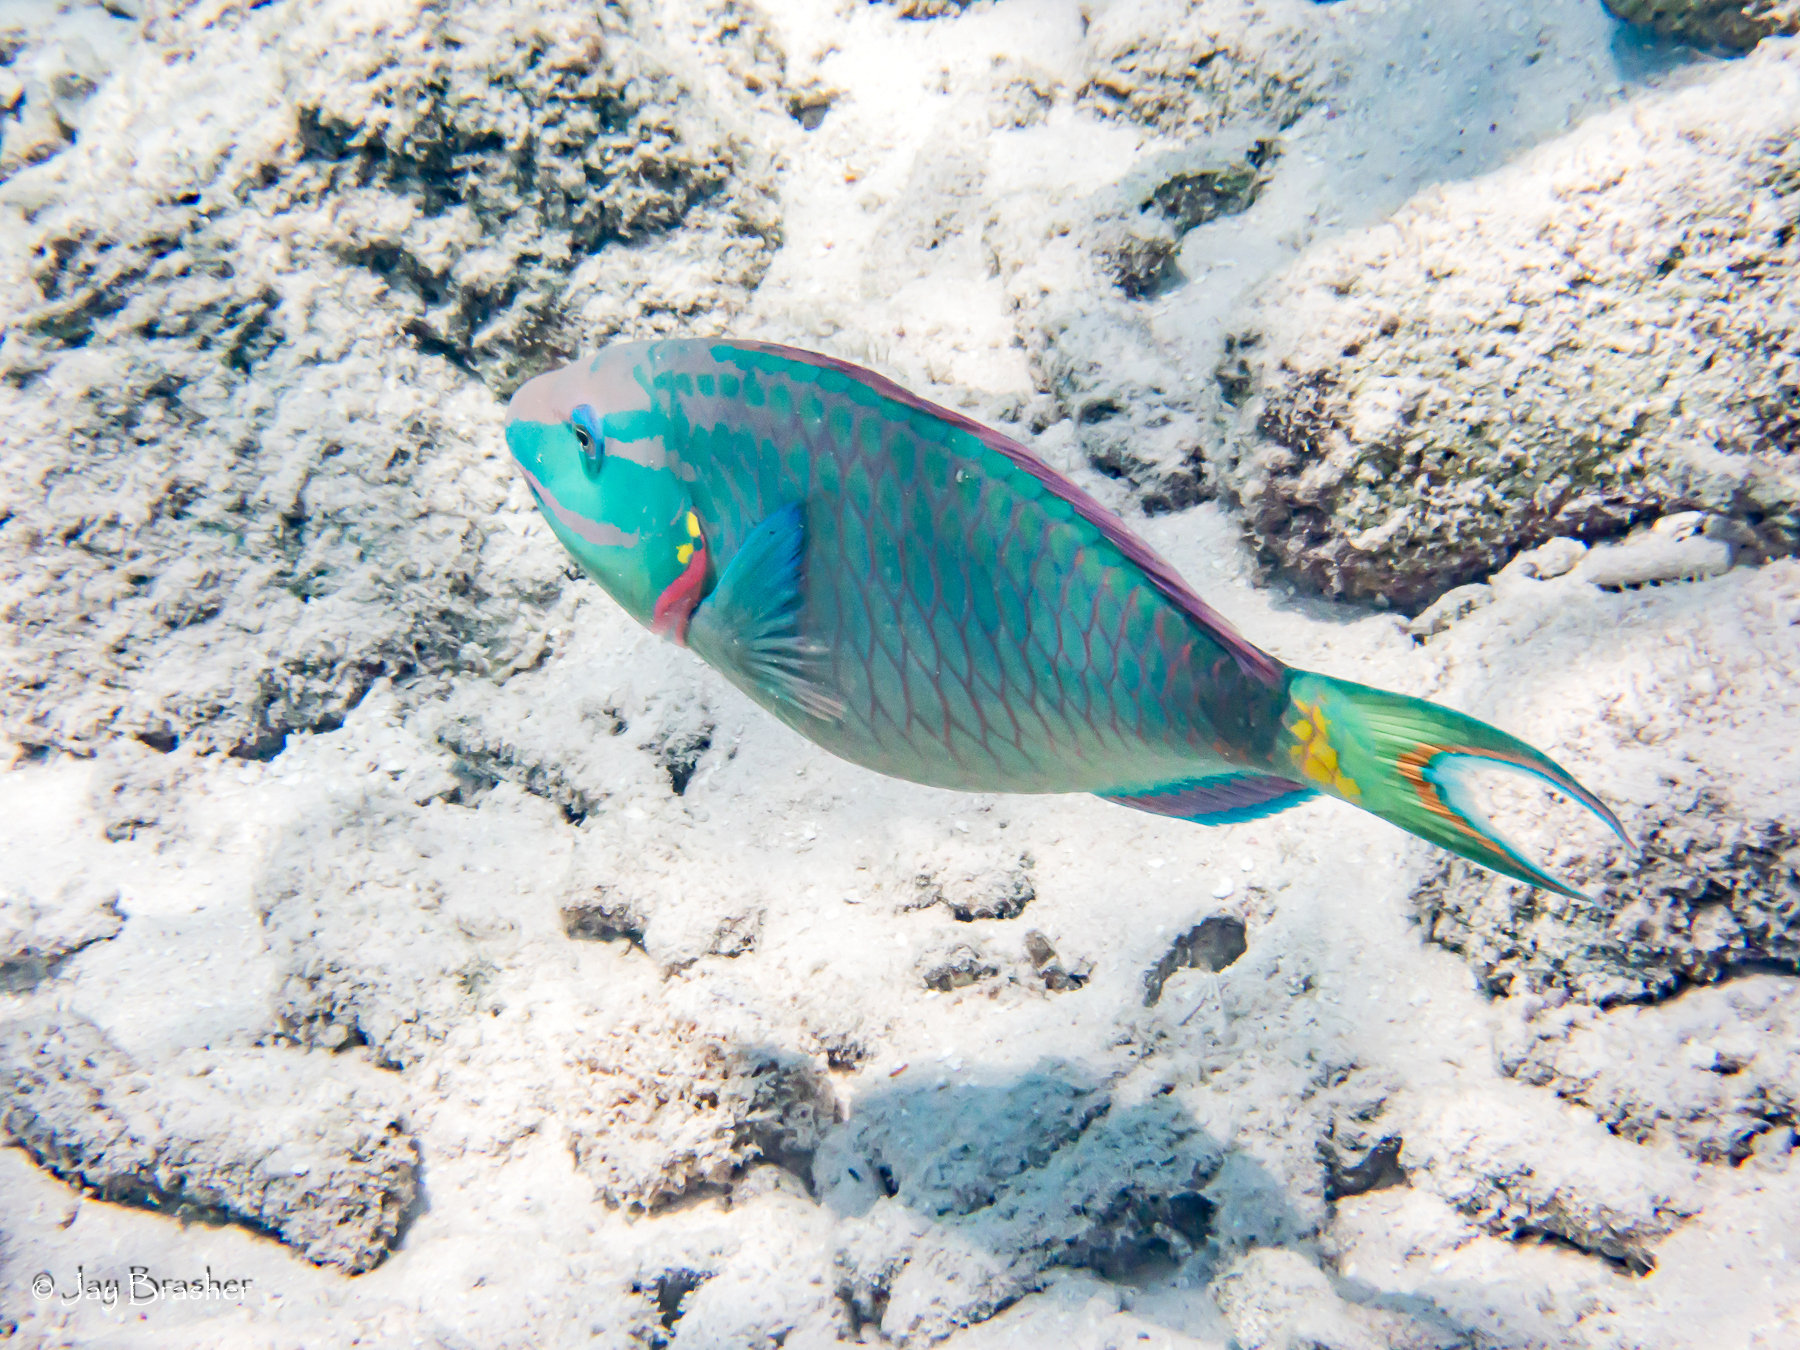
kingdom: Animalia
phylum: Chordata
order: Perciformes
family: Scaridae
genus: Sparisoma
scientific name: Sparisoma viride
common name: Stoplight parrotfish
